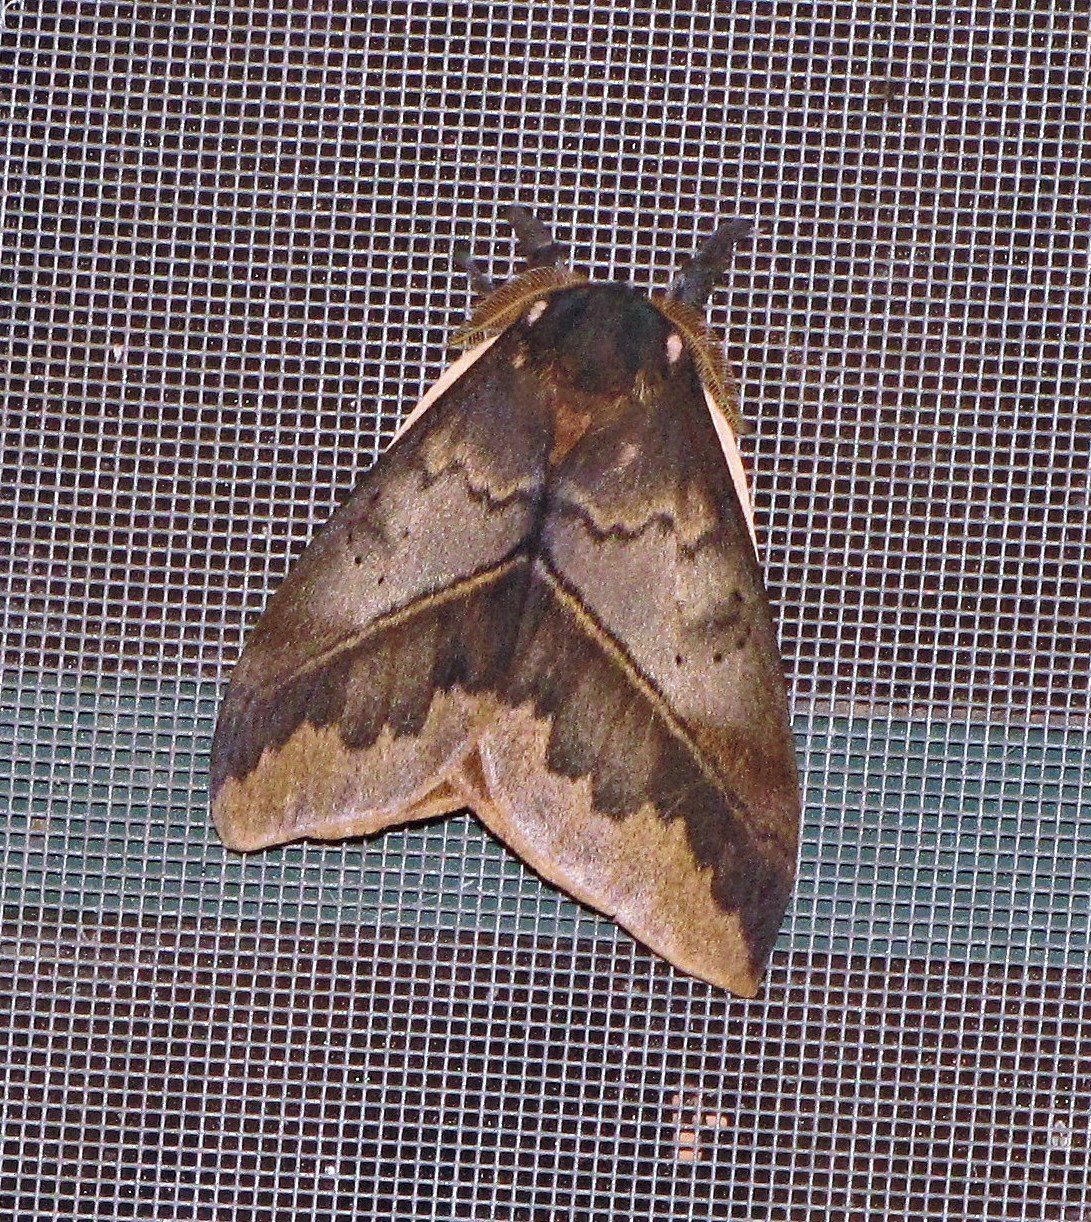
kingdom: Animalia
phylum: Arthropoda
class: Insecta
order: Lepidoptera
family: Saturniidae
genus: Automeris
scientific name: Automeris beckeri
